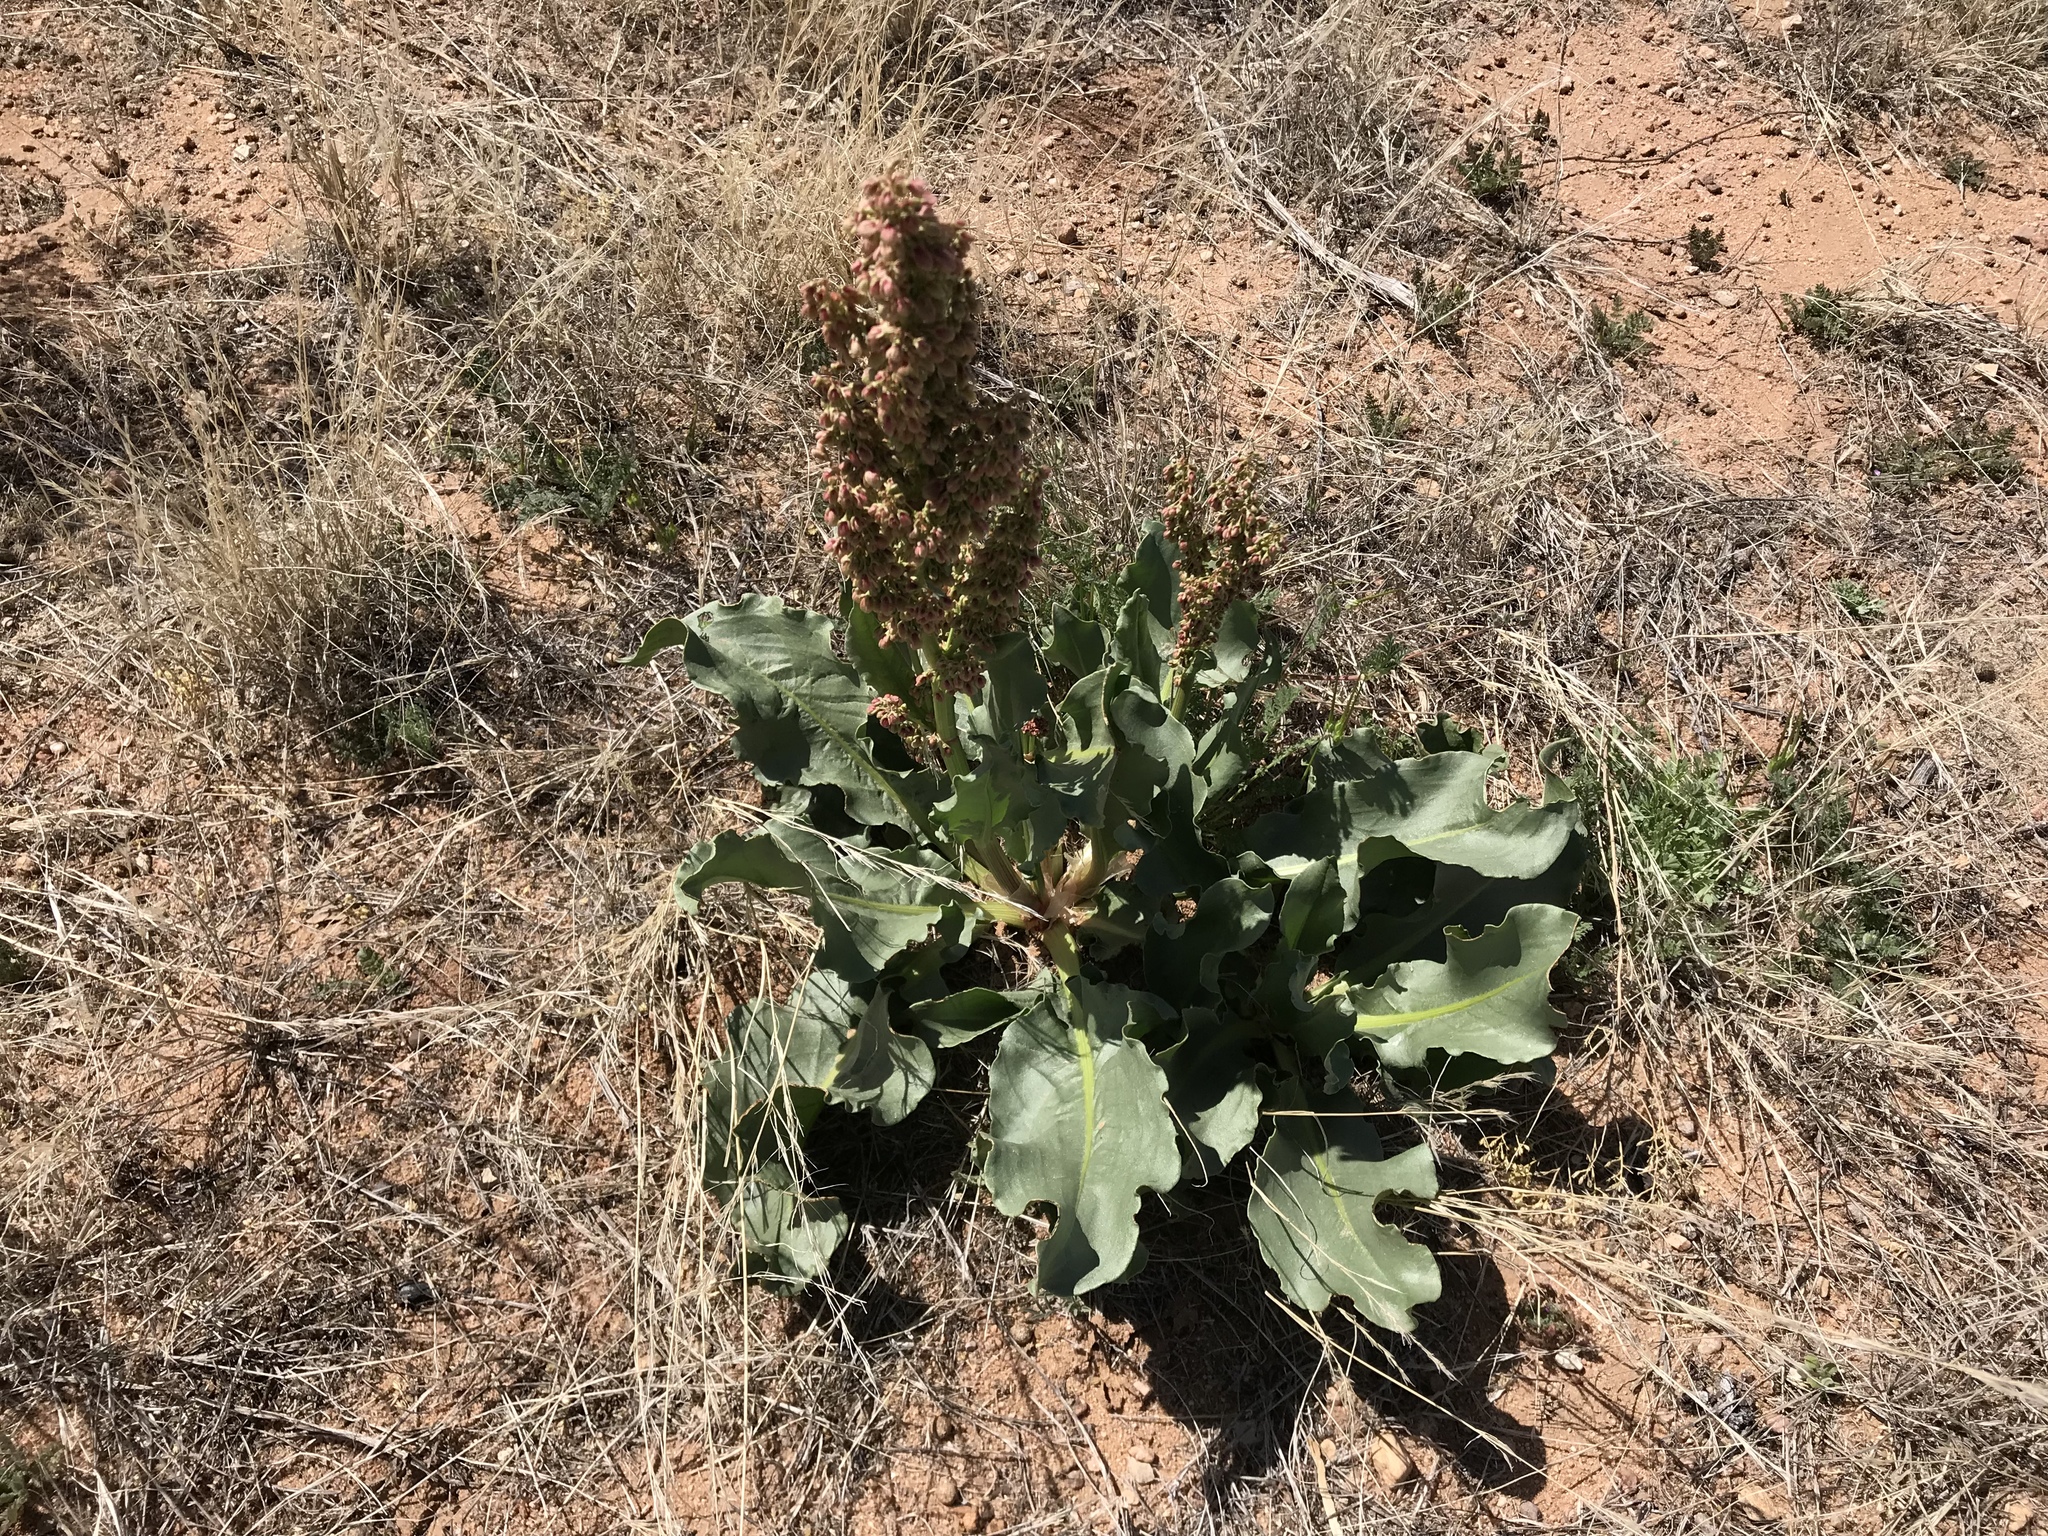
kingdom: Plantae
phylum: Tracheophyta
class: Magnoliopsida
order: Caryophyllales
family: Polygonaceae
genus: Rumex
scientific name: Rumex hymenosepalus
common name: Ganagra
